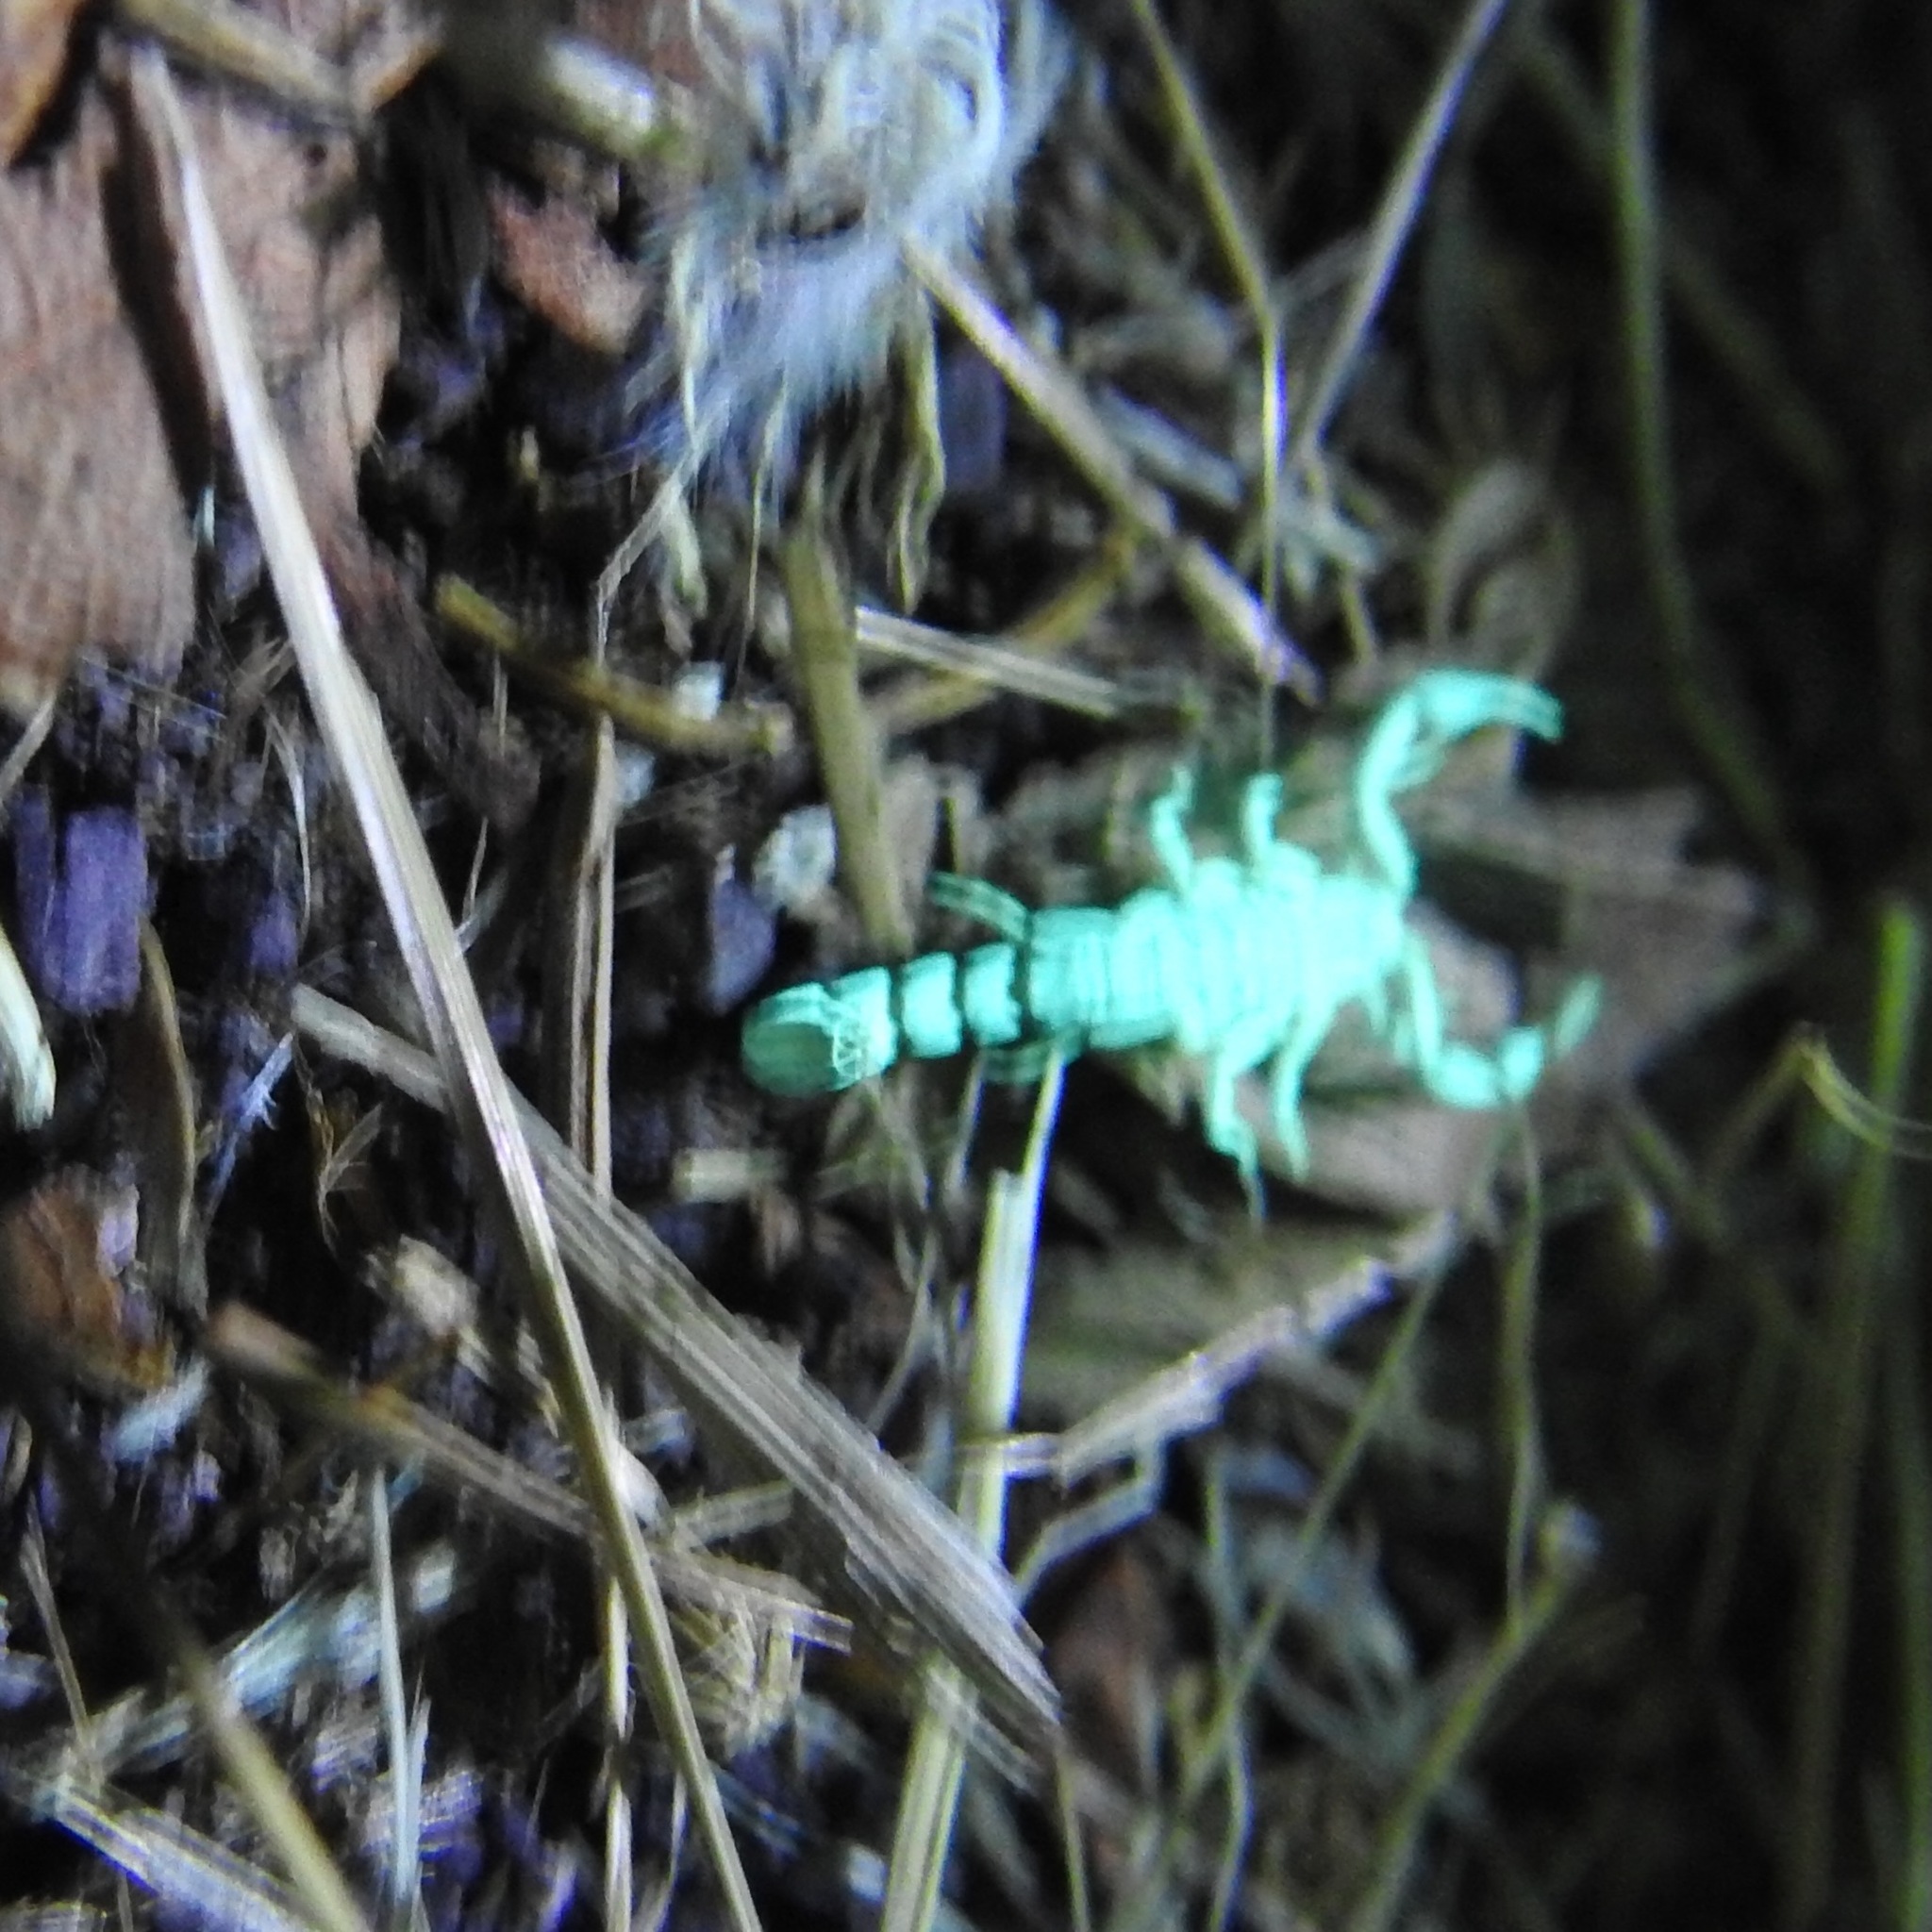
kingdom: Animalia
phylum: Arthropoda
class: Arachnida
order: Scorpiones
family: Vaejovidae
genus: Serradigitus
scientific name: Serradigitus gertschi
